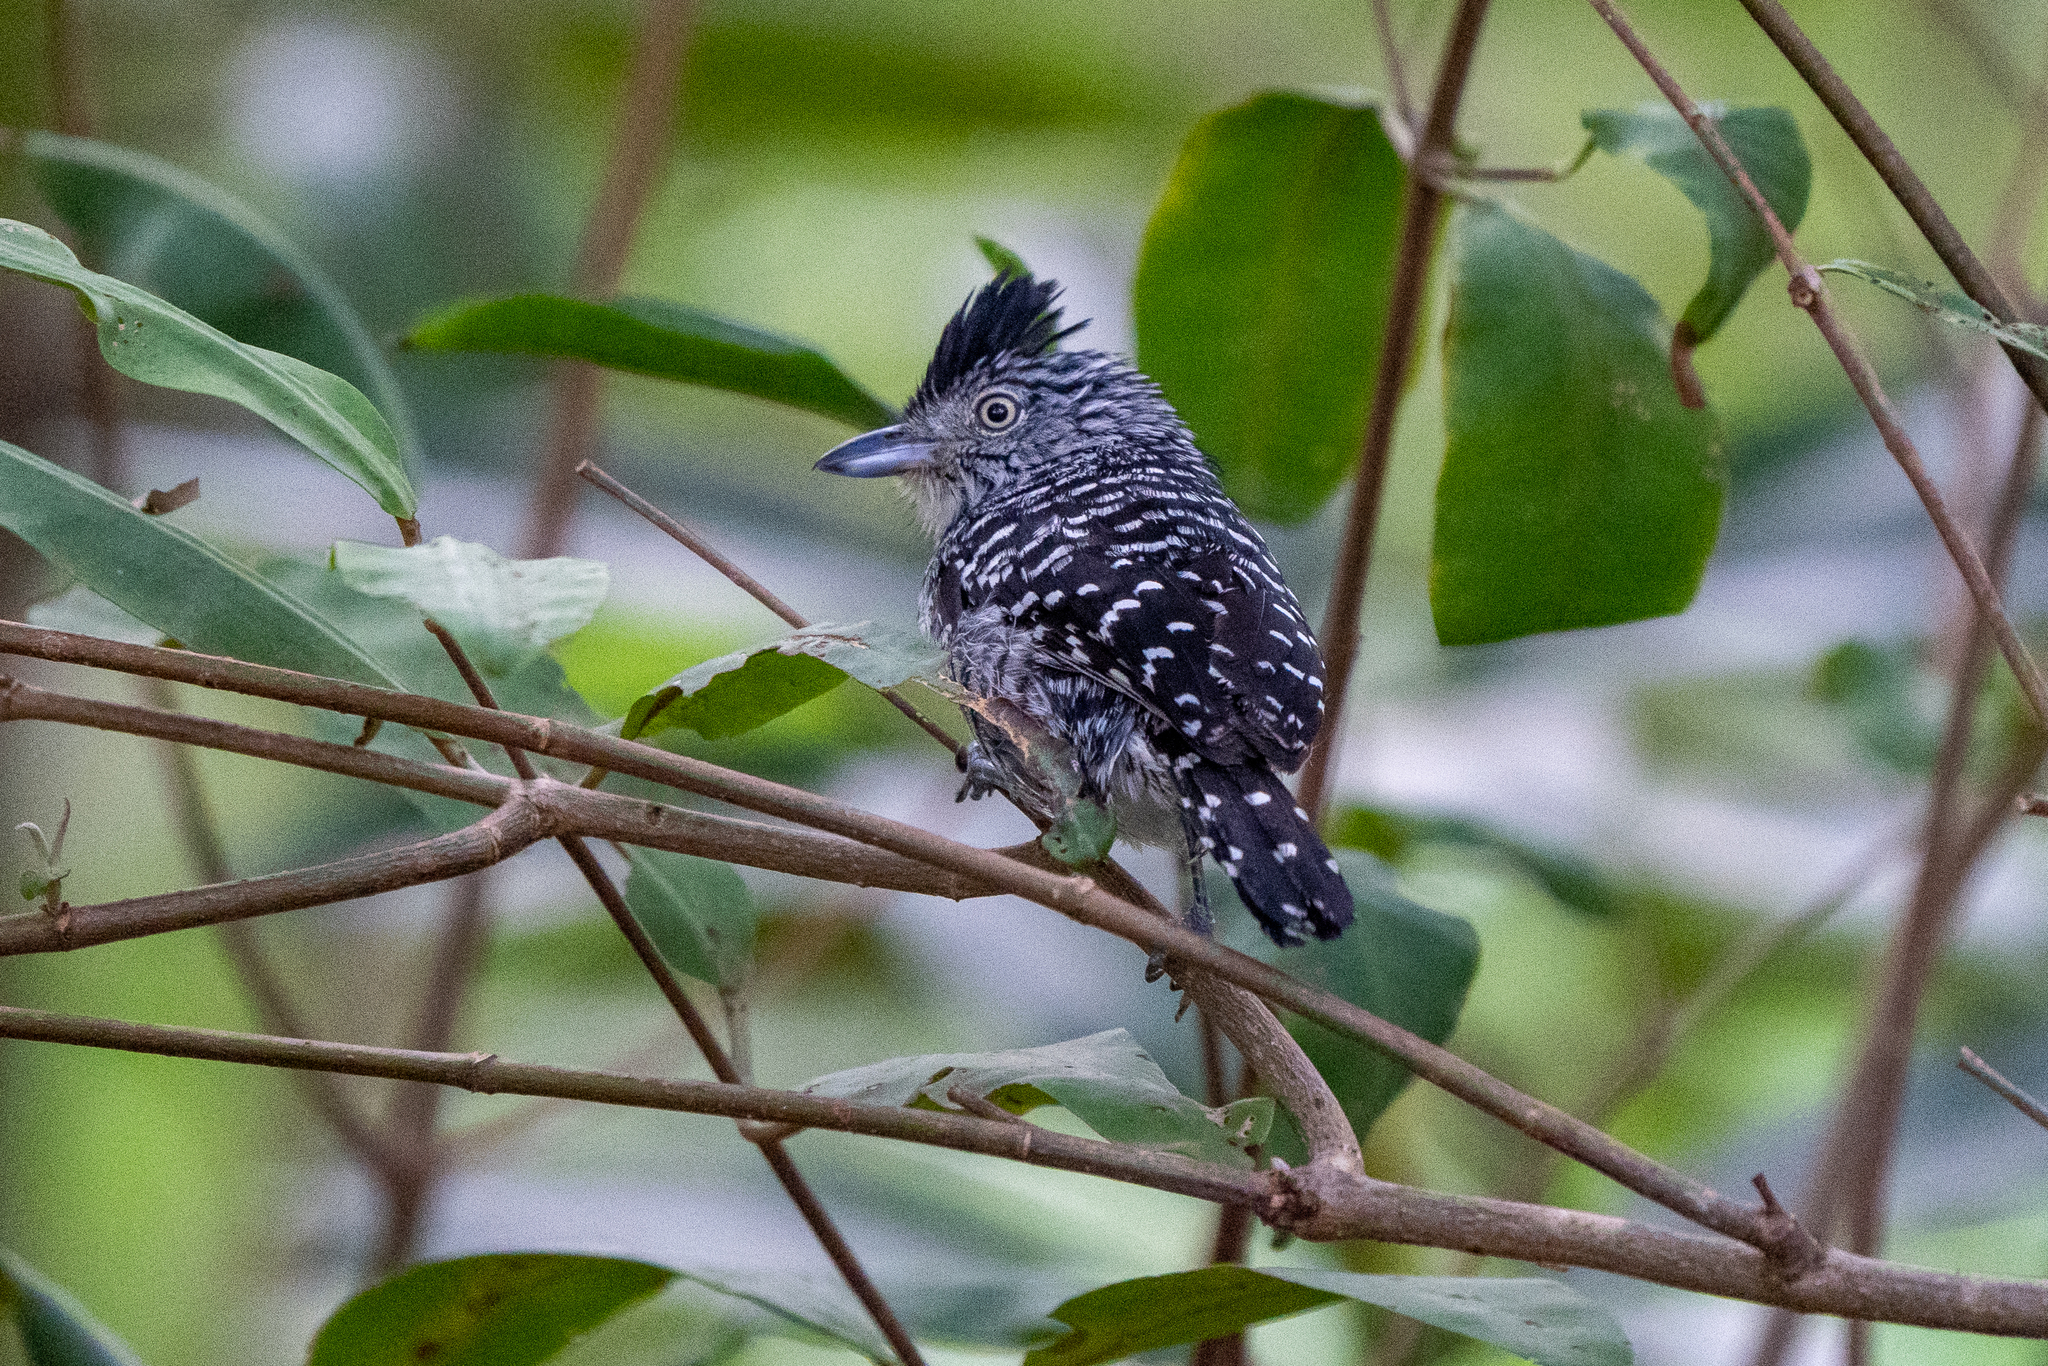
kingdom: Animalia
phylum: Chordata
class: Aves
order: Passeriformes
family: Thamnophilidae
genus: Thamnophilus
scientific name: Thamnophilus doliatus
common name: Barred antshrike
